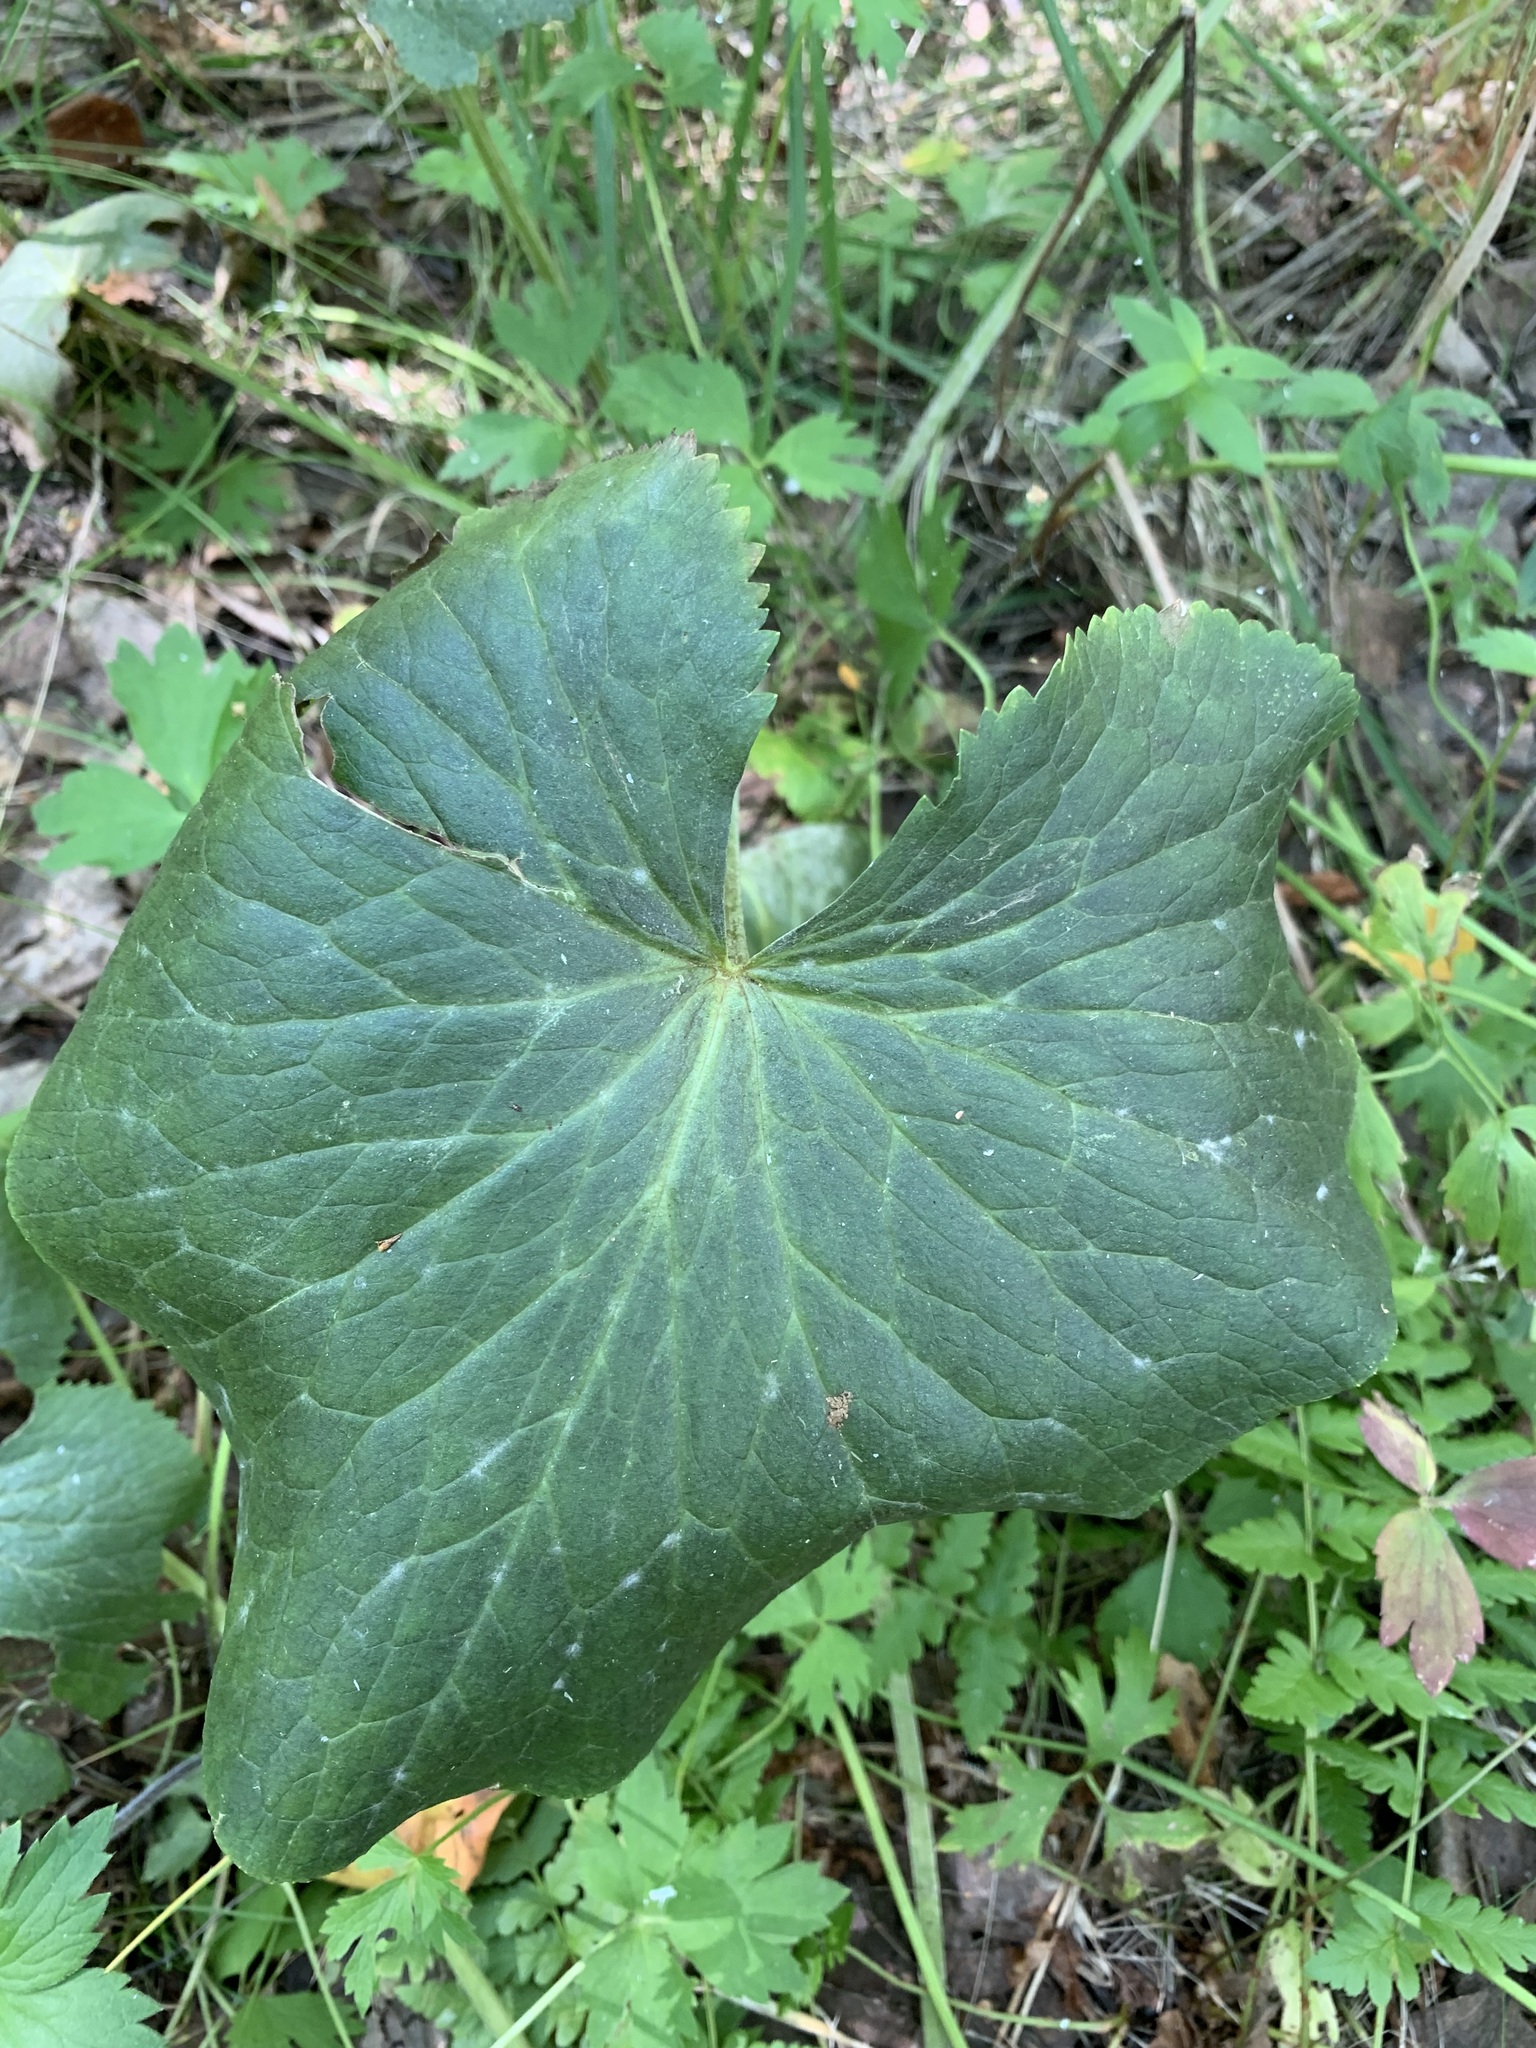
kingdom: Plantae
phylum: Tracheophyta
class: Magnoliopsida
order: Ranunculales
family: Ranunculaceae
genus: Caltha
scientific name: Caltha palustris
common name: Marsh marigold
